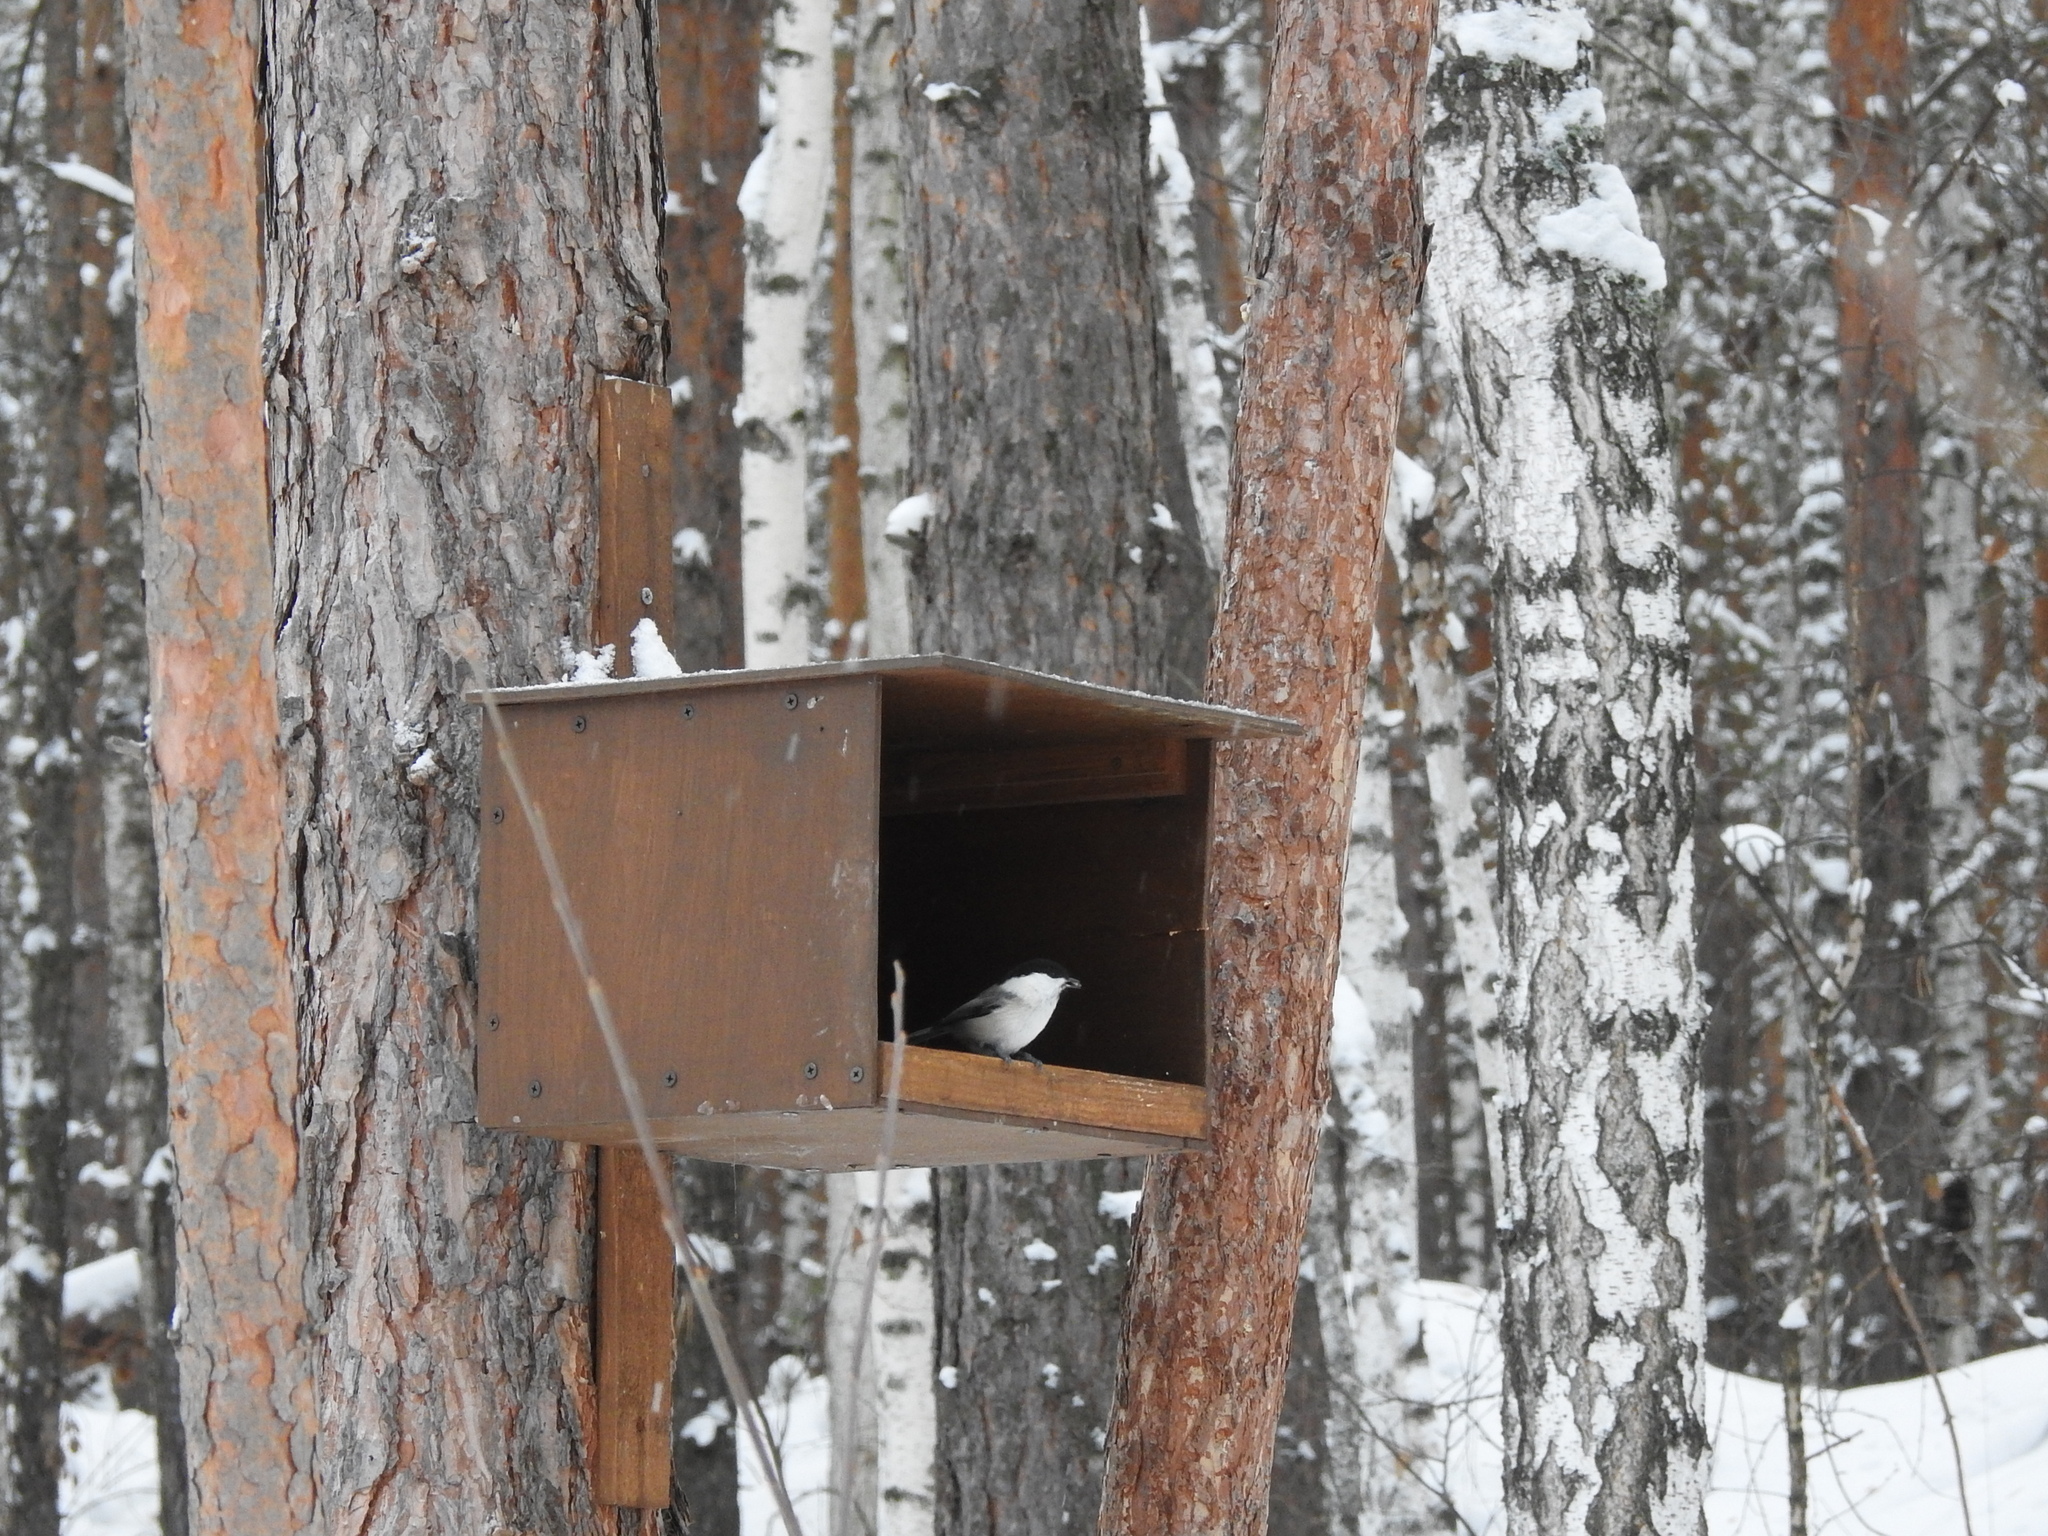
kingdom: Animalia
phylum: Chordata
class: Aves
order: Passeriformes
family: Paridae
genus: Poecile
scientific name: Poecile montanus
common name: Willow tit
